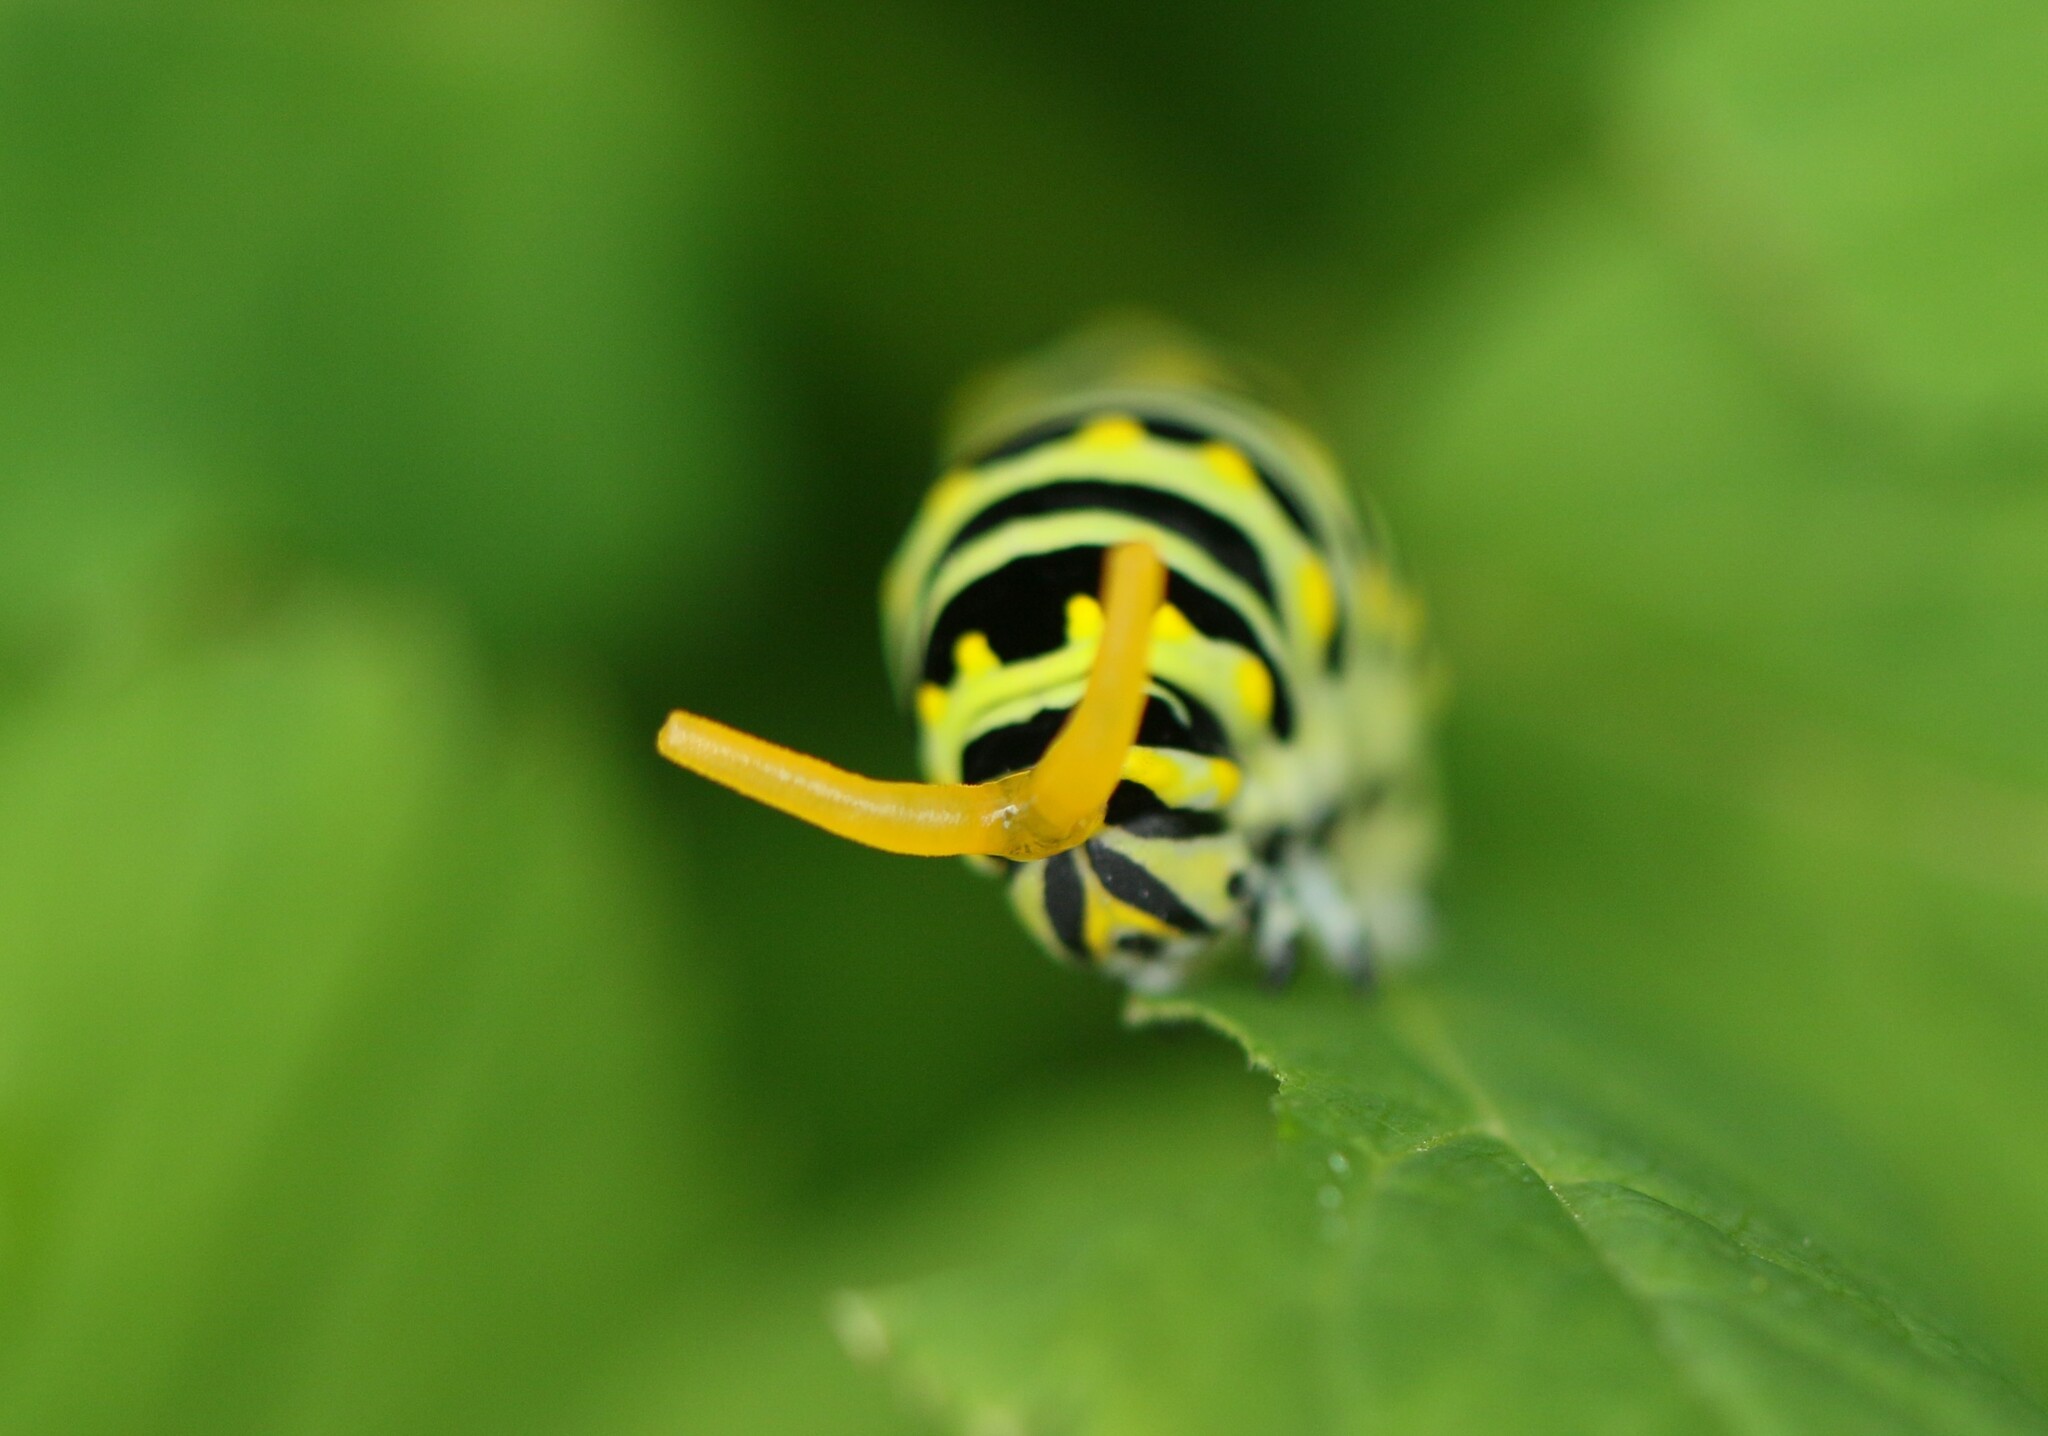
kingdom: Animalia
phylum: Arthropoda
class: Insecta
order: Lepidoptera
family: Papilionidae
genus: Papilio
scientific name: Papilio polyxenes
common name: Black swallowtail
